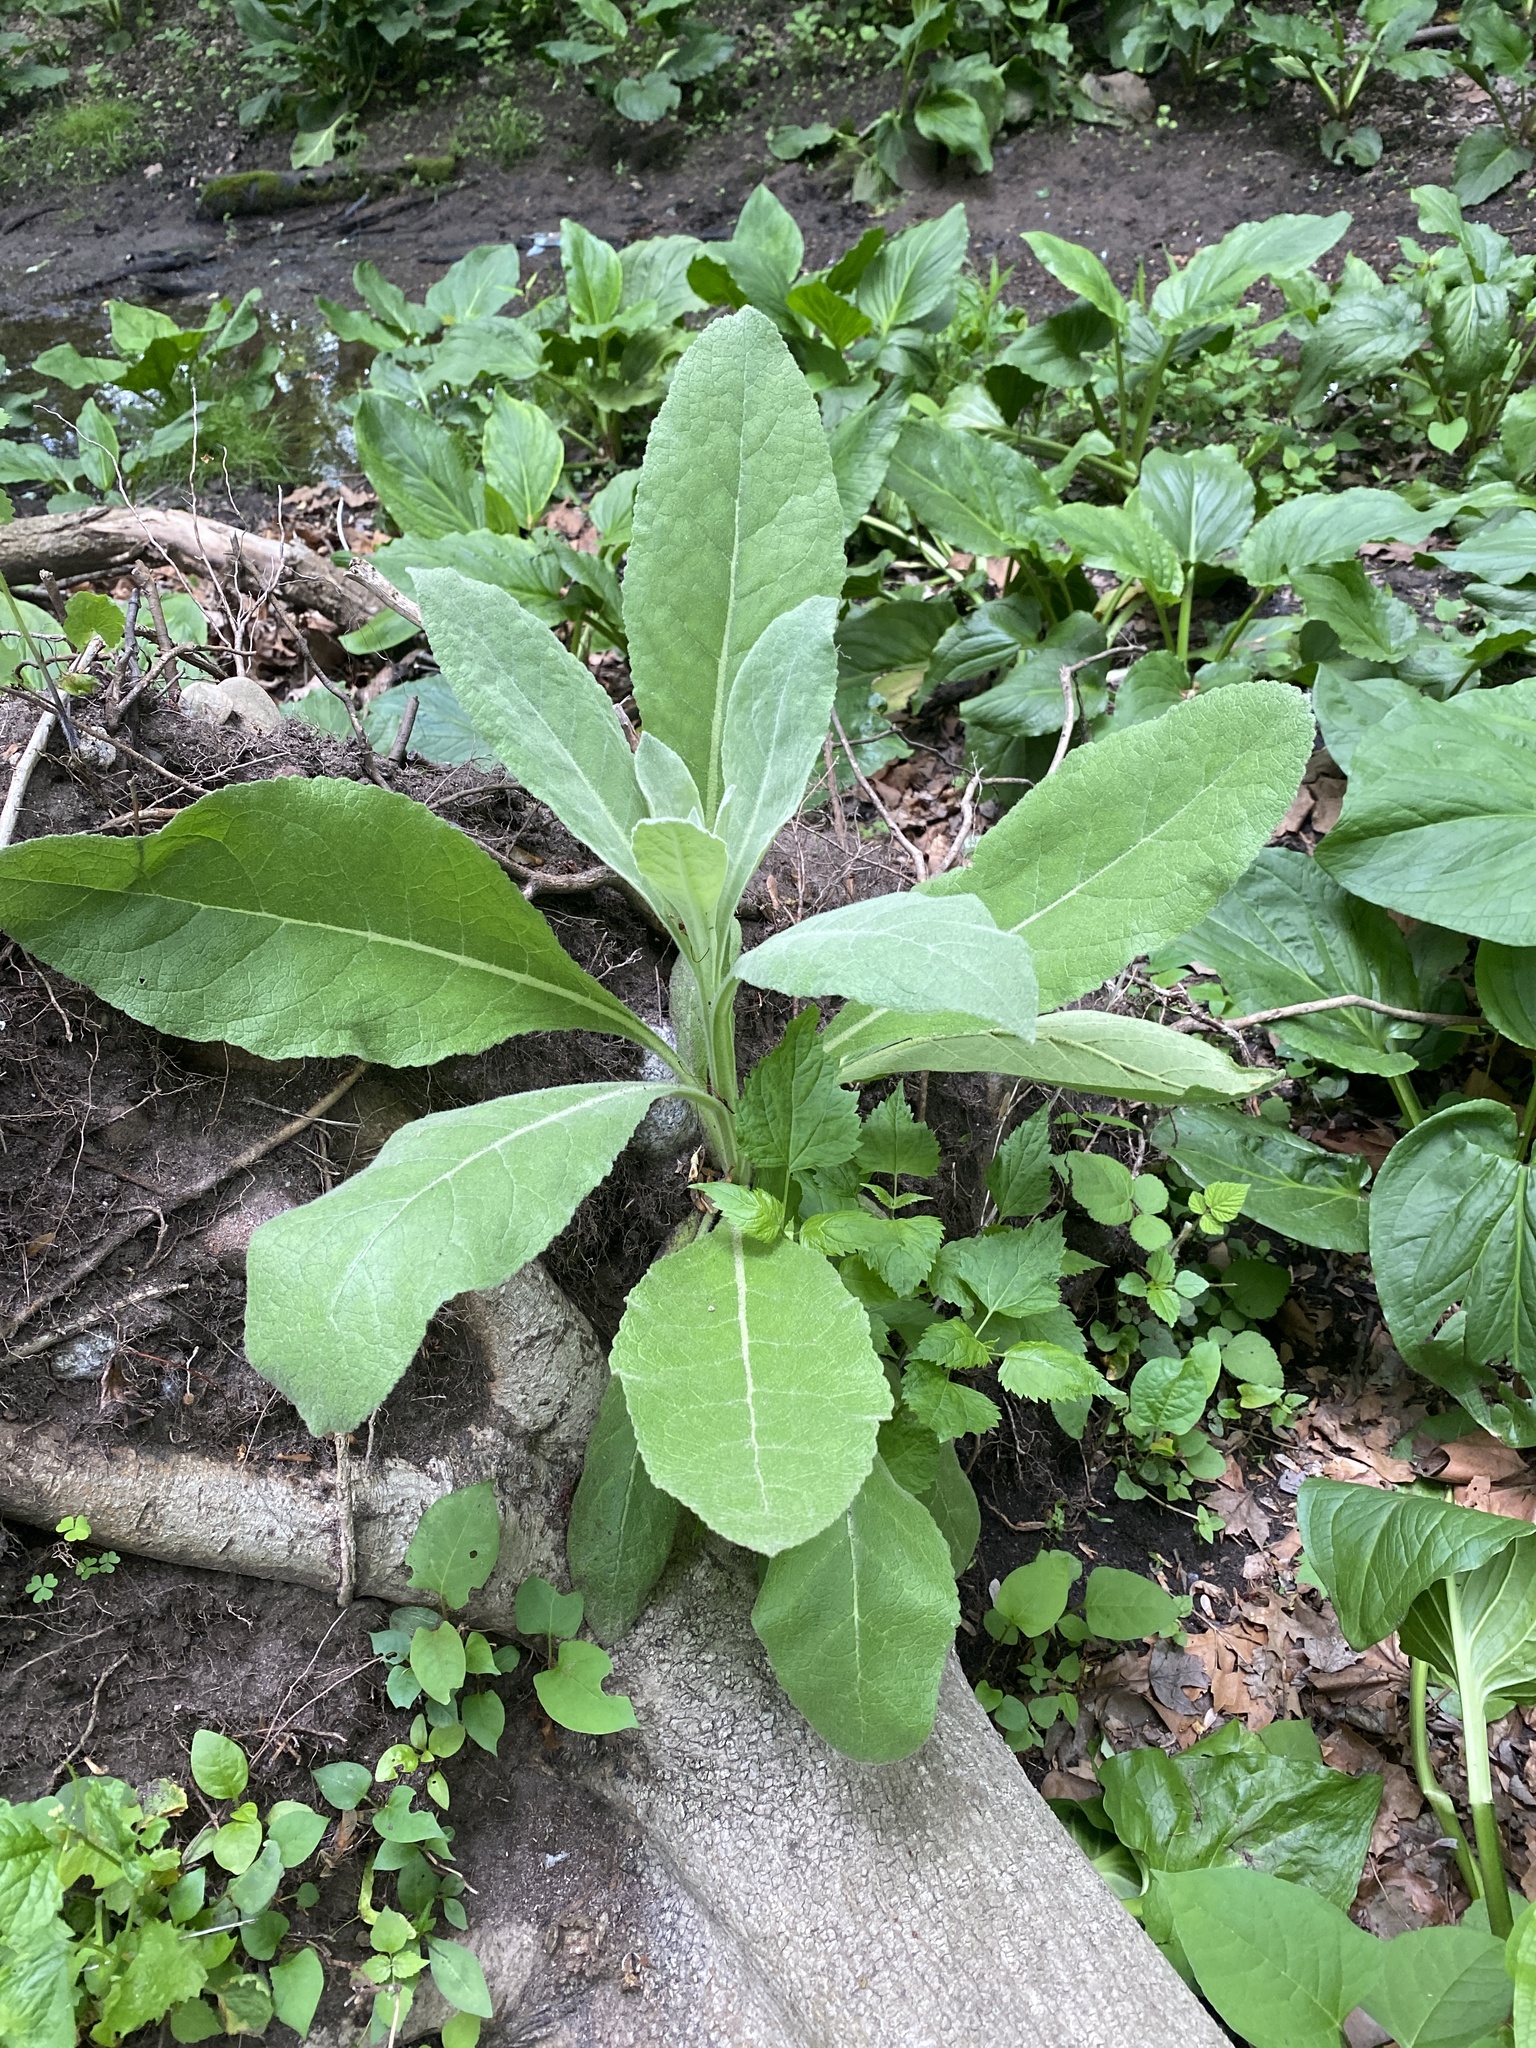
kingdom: Plantae
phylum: Tracheophyta
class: Magnoliopsida
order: Lamiales
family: Scrophulariaceae
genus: Verbascum
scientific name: Verbascum thapsus
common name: Common mullein
